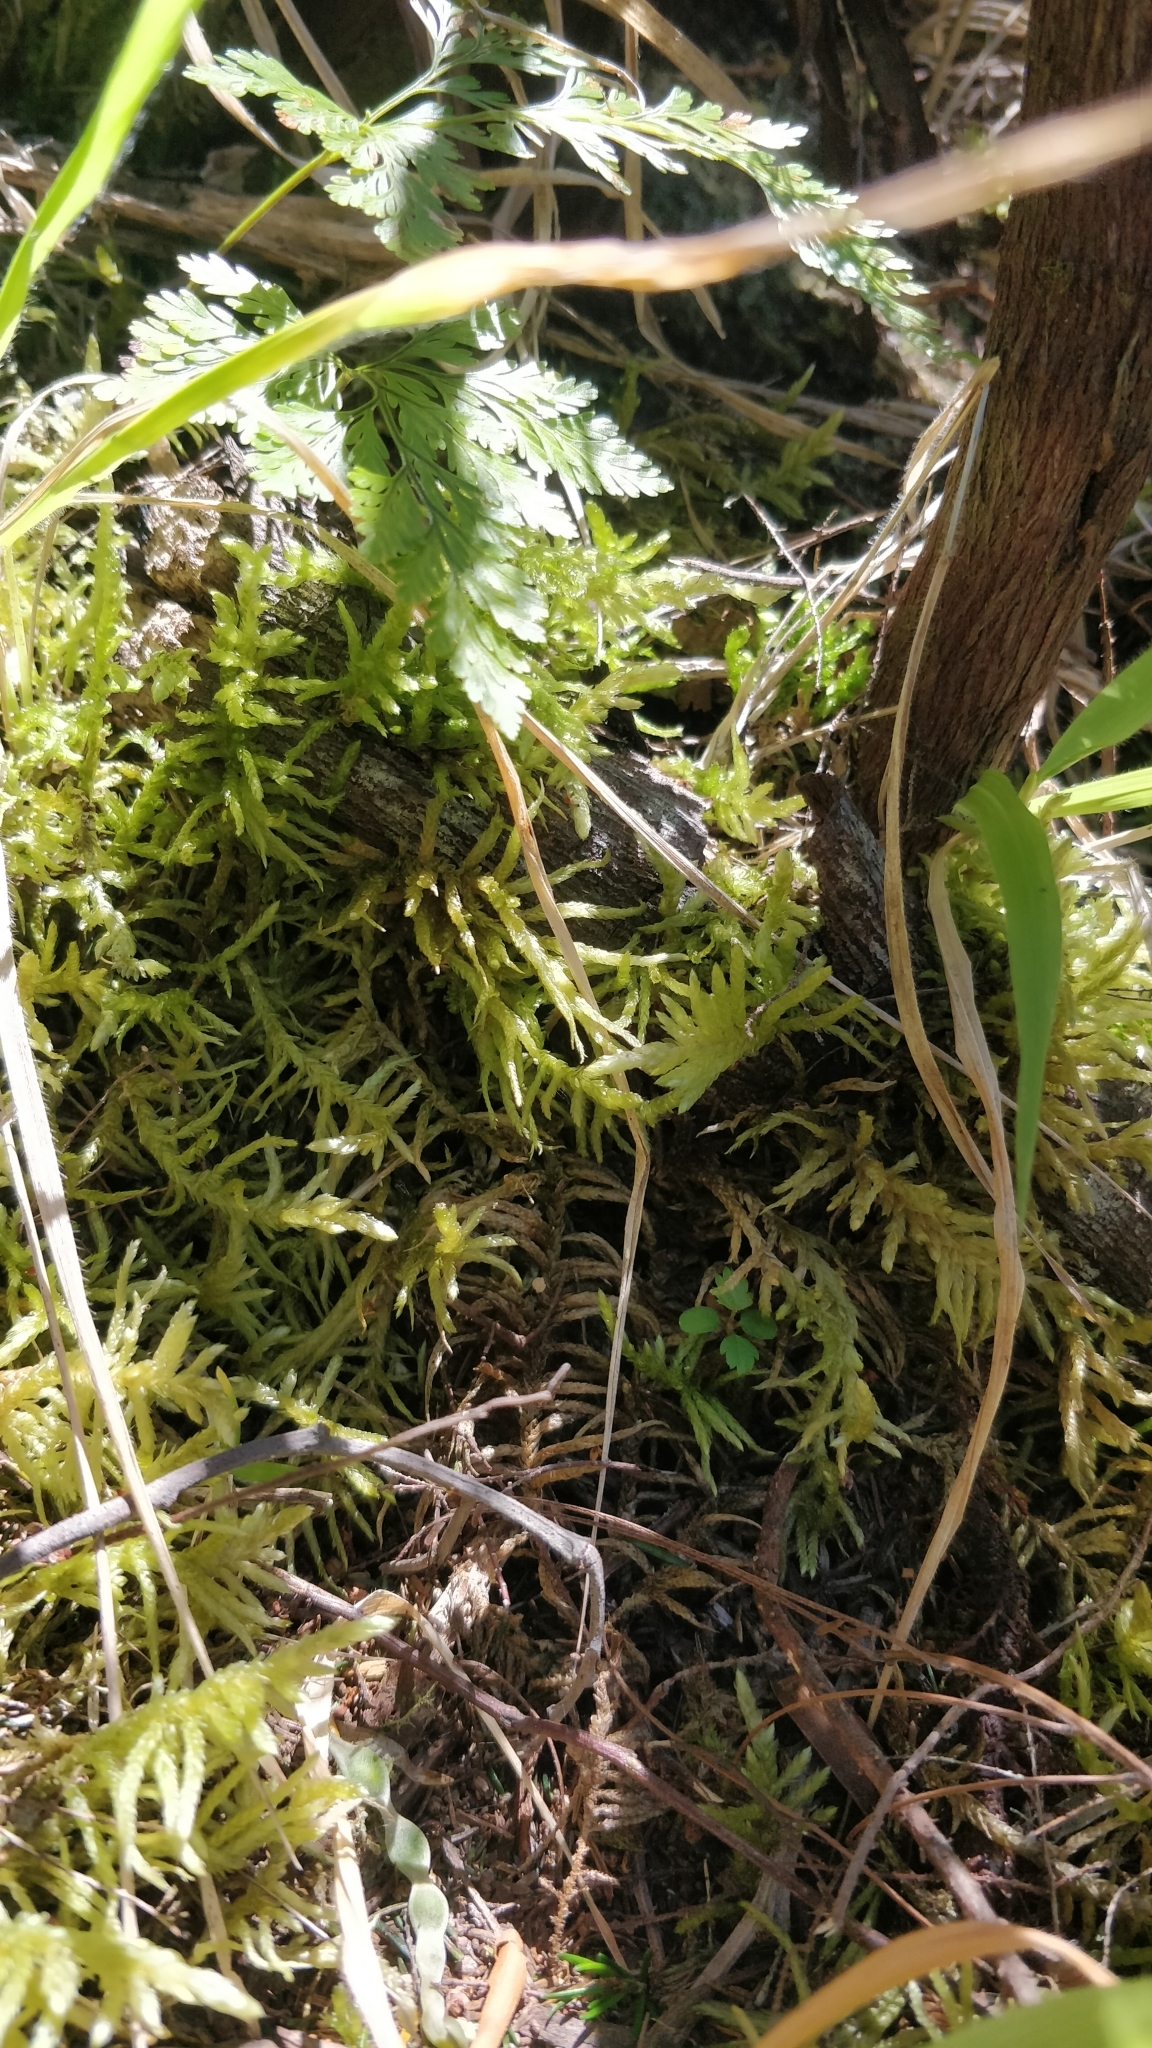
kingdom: Plantae
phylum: Bryophyta
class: Bryopsida
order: Hypnales
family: Brachytheciaceae
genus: Pseudoscleropodium
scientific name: Pseudoscleropodium purum
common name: Neat feather-moss
